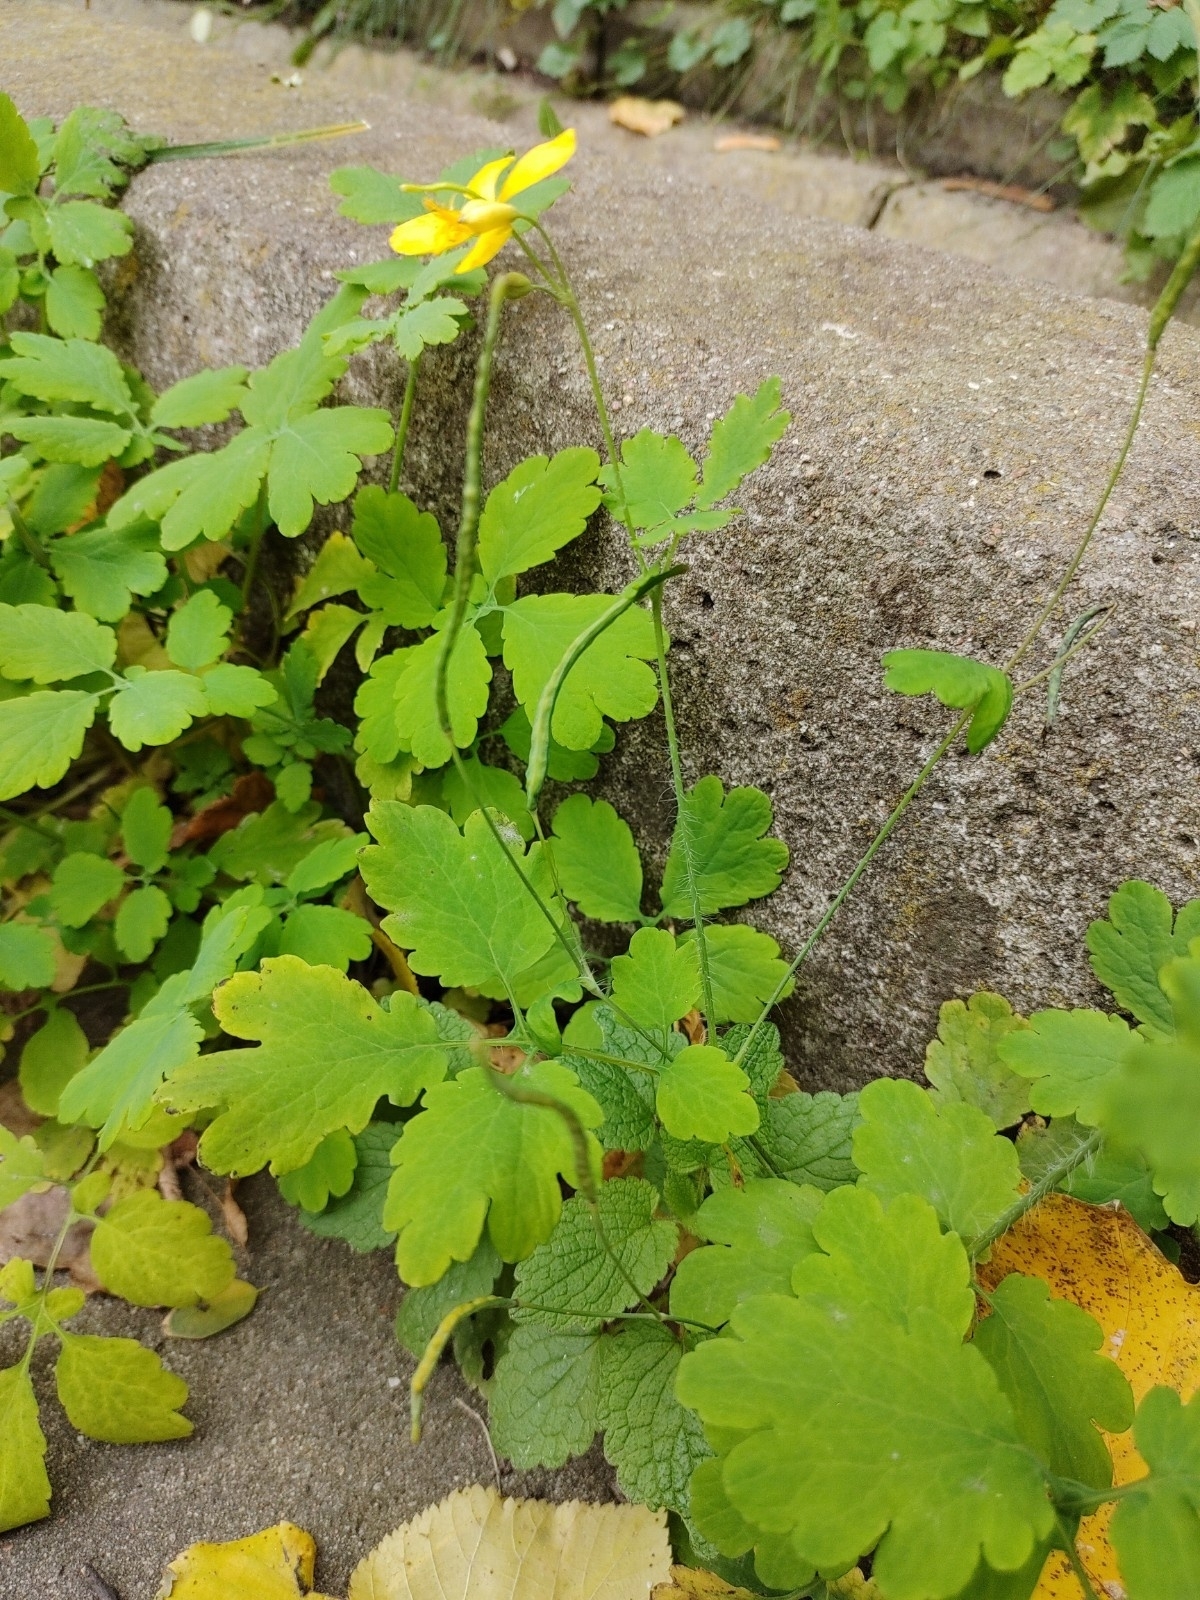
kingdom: Plantae
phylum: Tracheophyta
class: Magnoliopsida
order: Ranunculales
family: Papaveraceae
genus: Chelidonium
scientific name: Chelidonium majus
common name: Greater celandine
